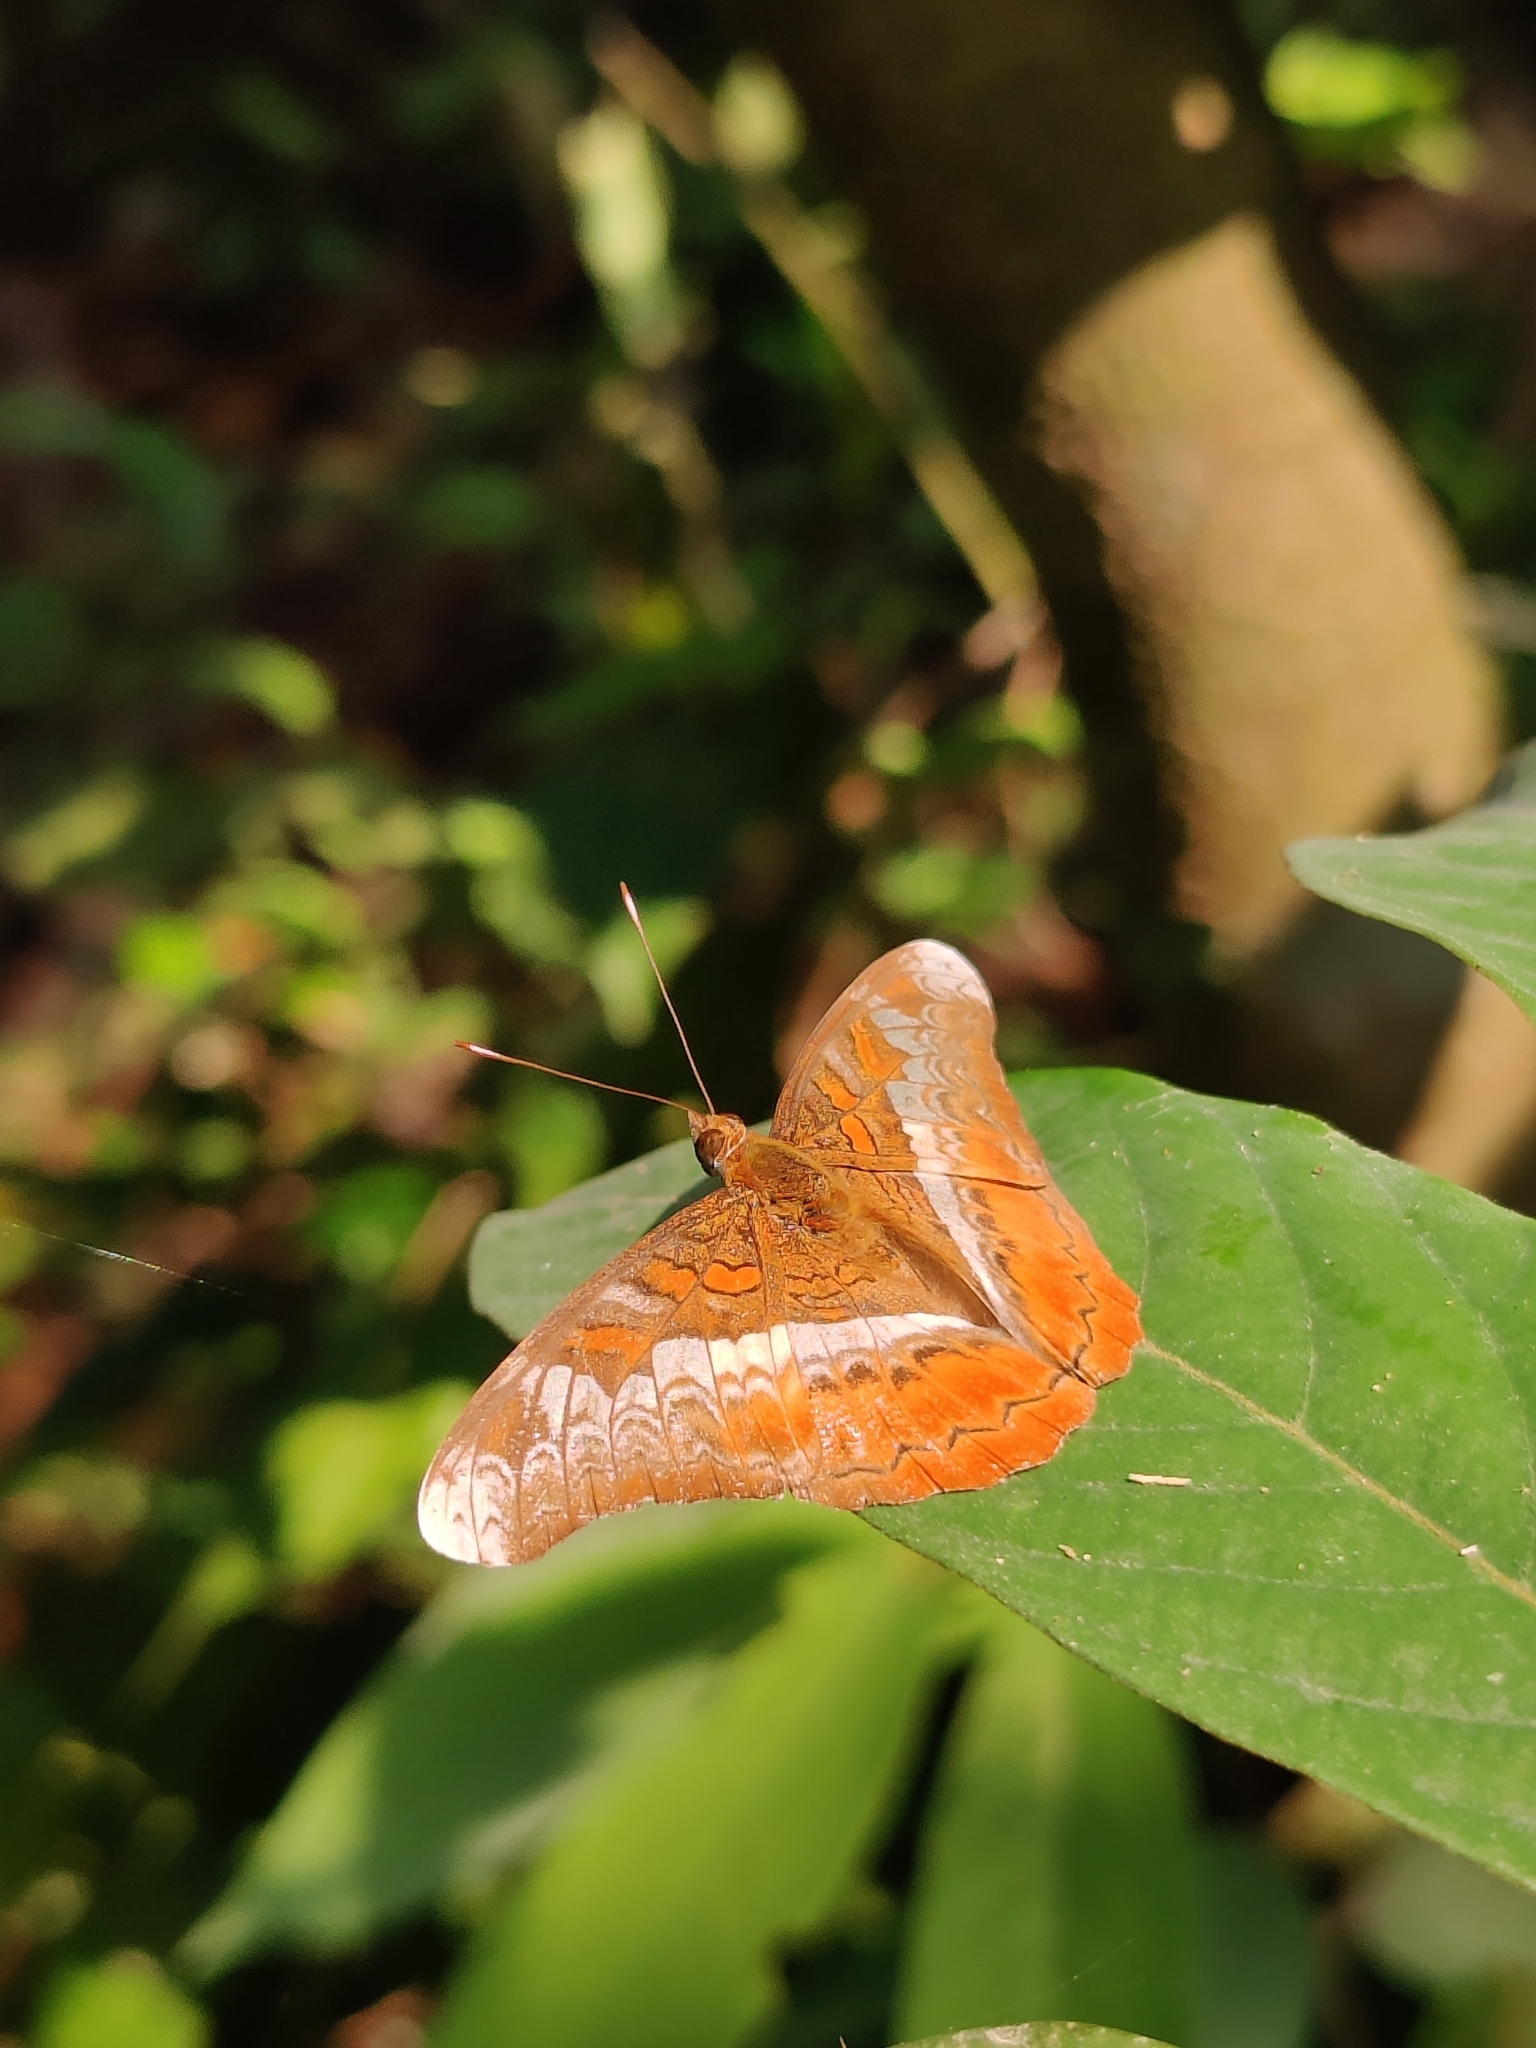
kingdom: Animalia
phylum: Arthropoda
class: Insecta
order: Lepidoptera
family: Nymphalidae
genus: Lebadea
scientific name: Lebadea martha
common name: Knight
